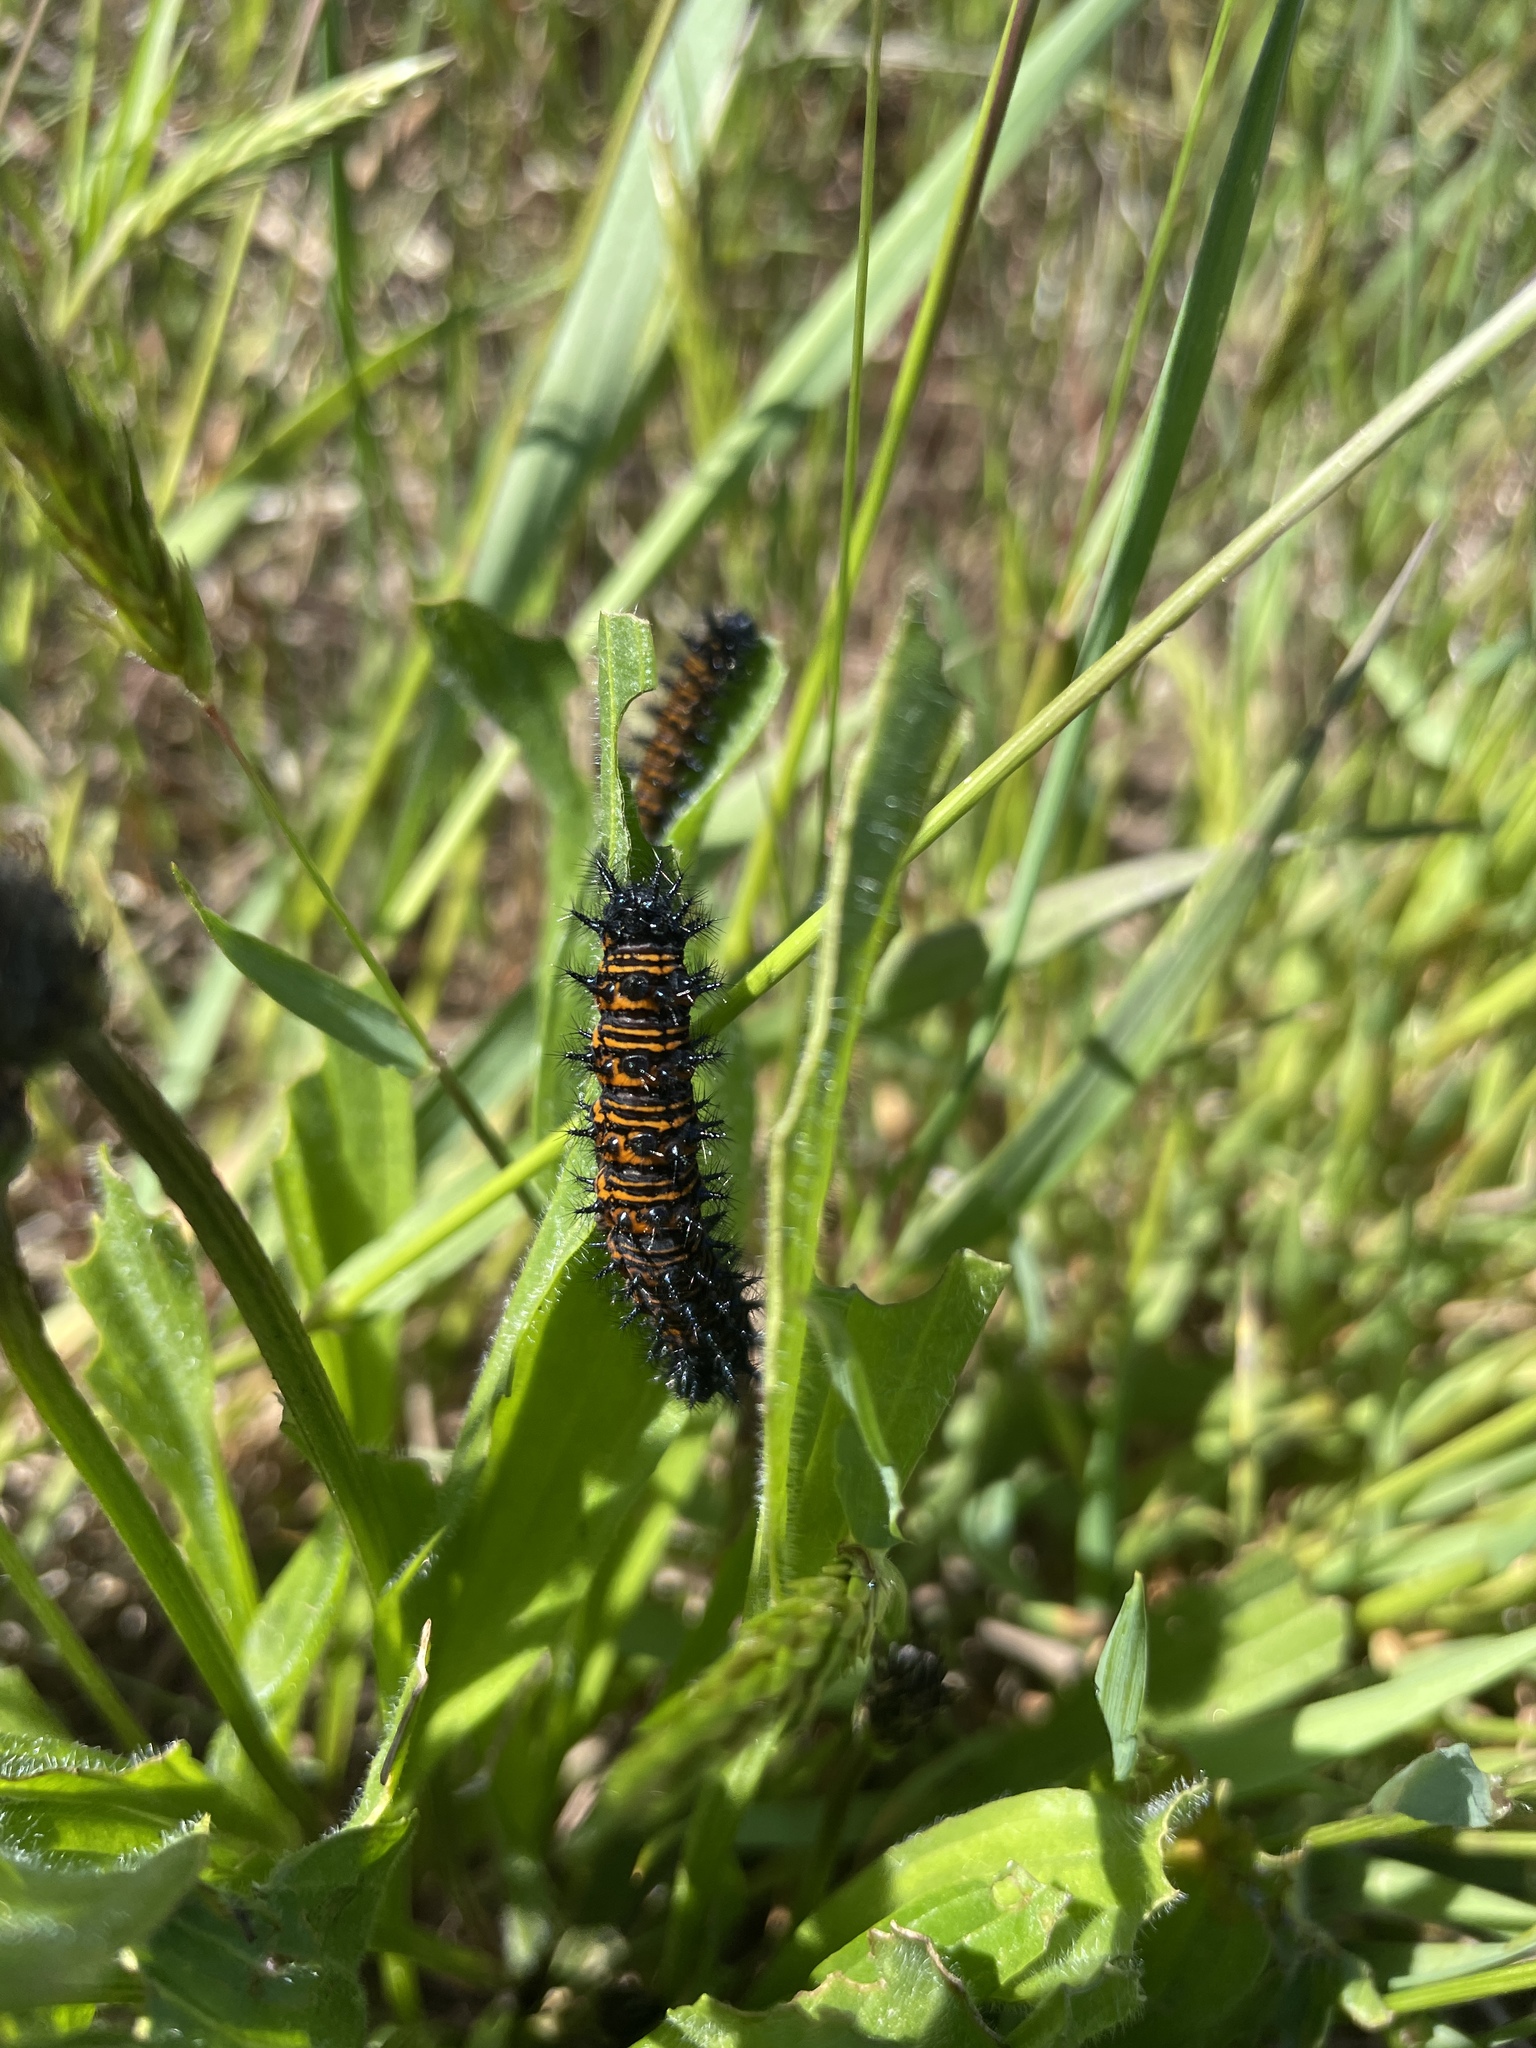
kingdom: Animalia
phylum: Arthropoda
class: Insecta
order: Lepidoptera
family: Nymphalidae
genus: Euphydryas
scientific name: Euphydryas phaeton
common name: Baltimore checkerspot
